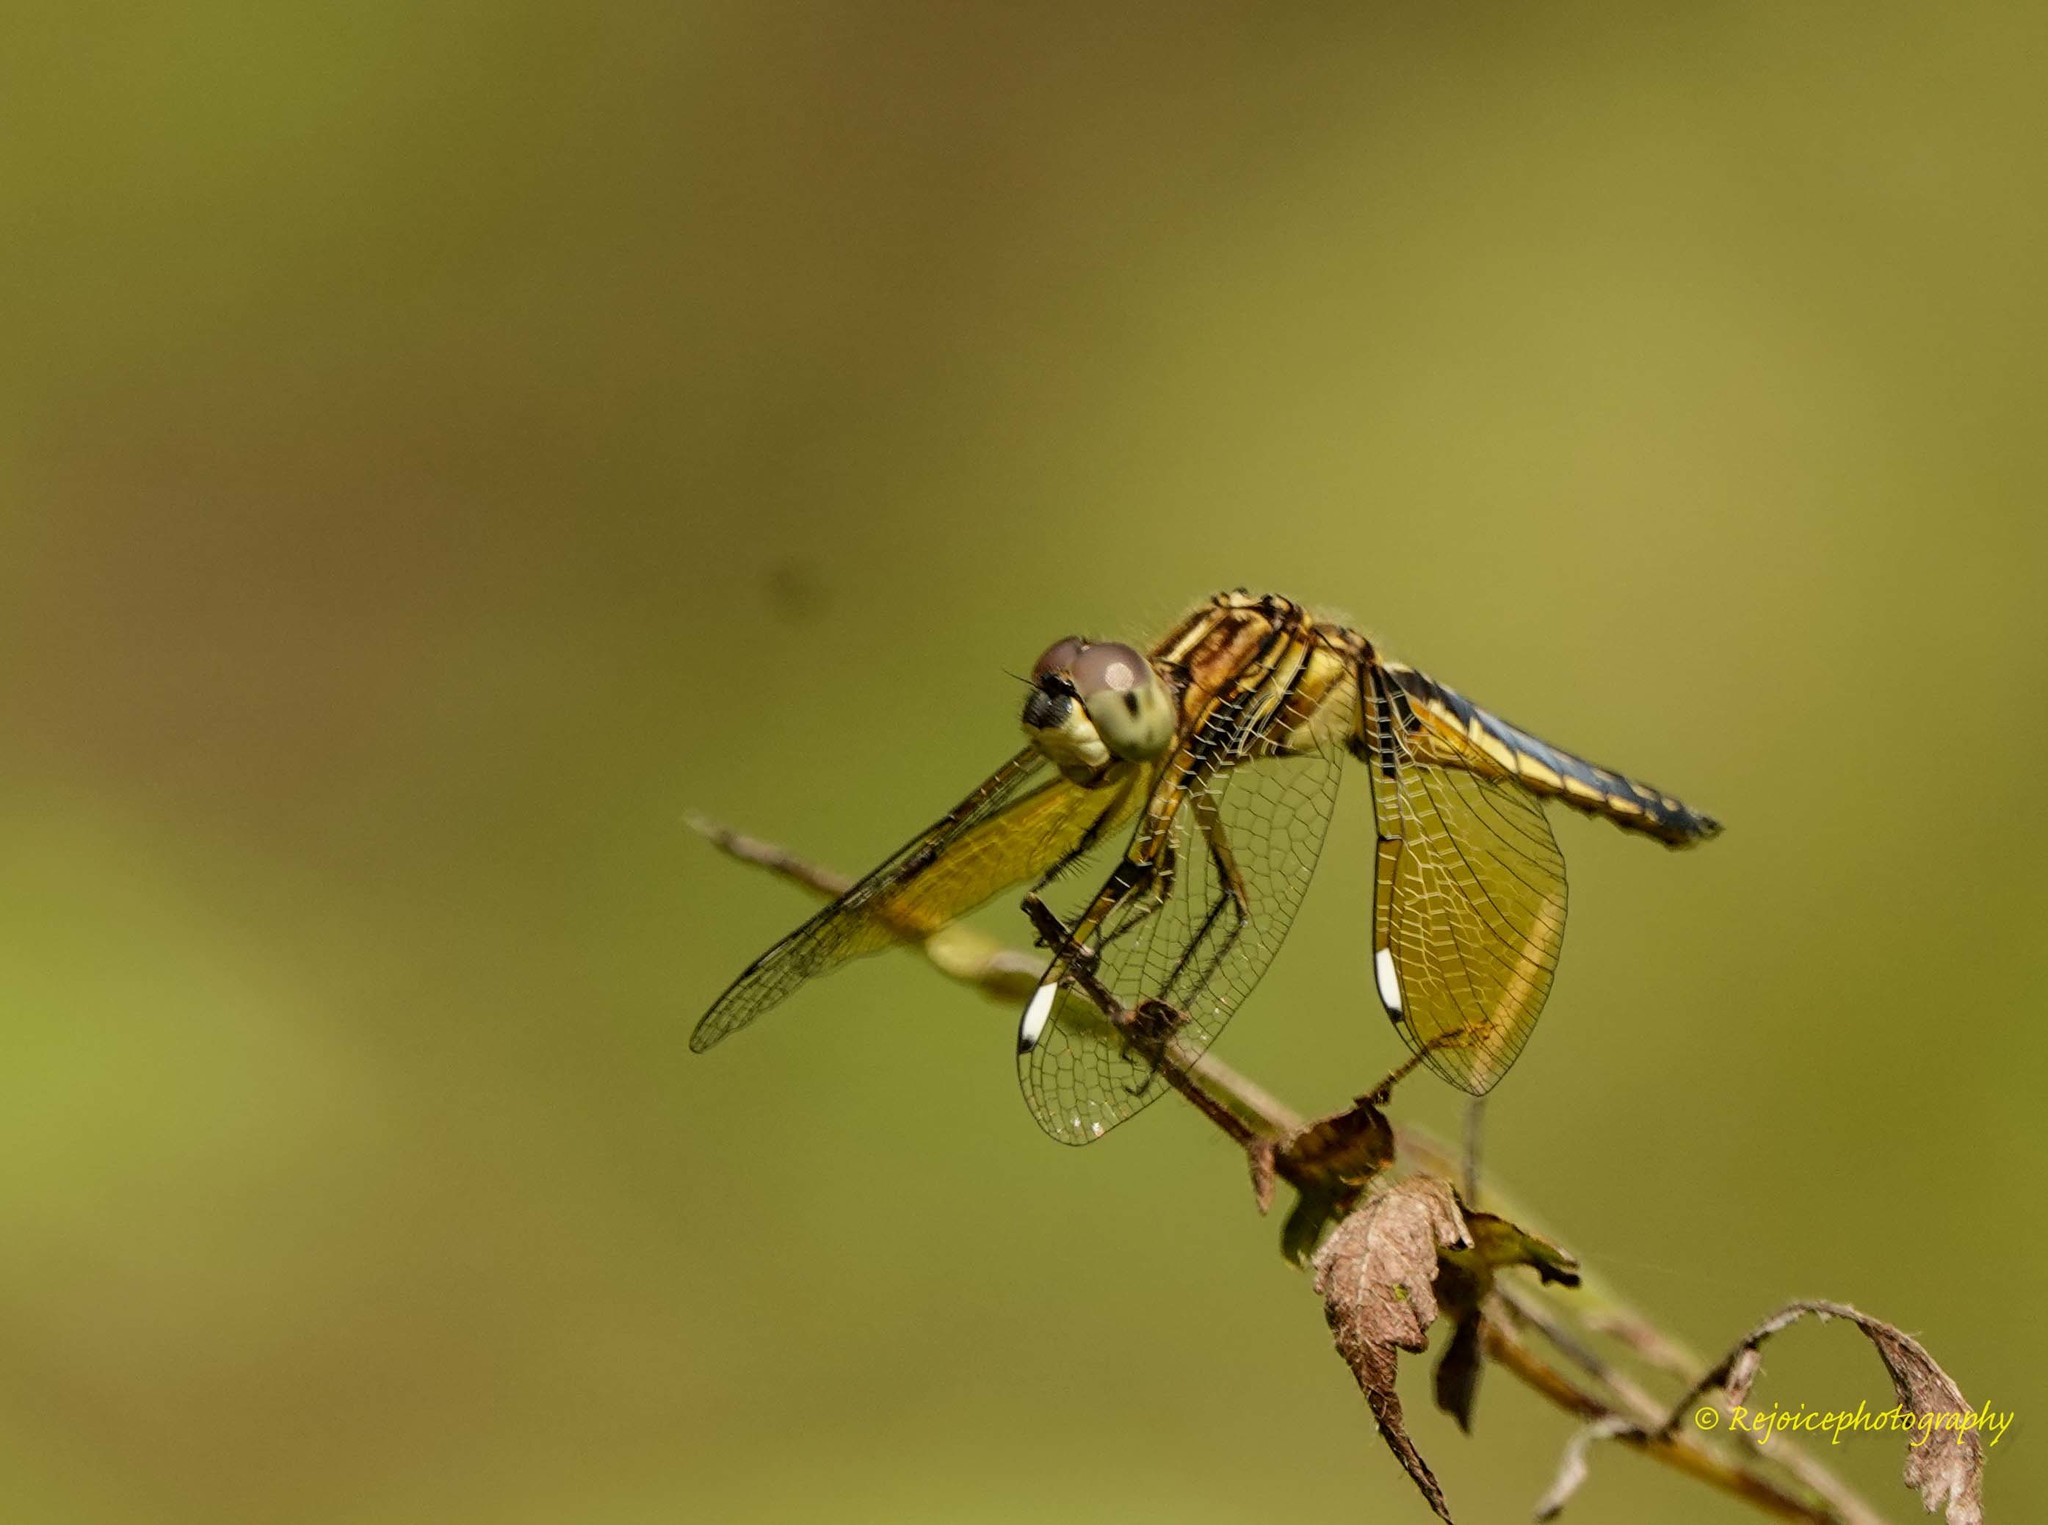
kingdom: Animalia
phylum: Arthropoda
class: Insecta
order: Odonata
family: Libellulidae
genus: Palpopleura
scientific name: Palpopleura sexmaculata
